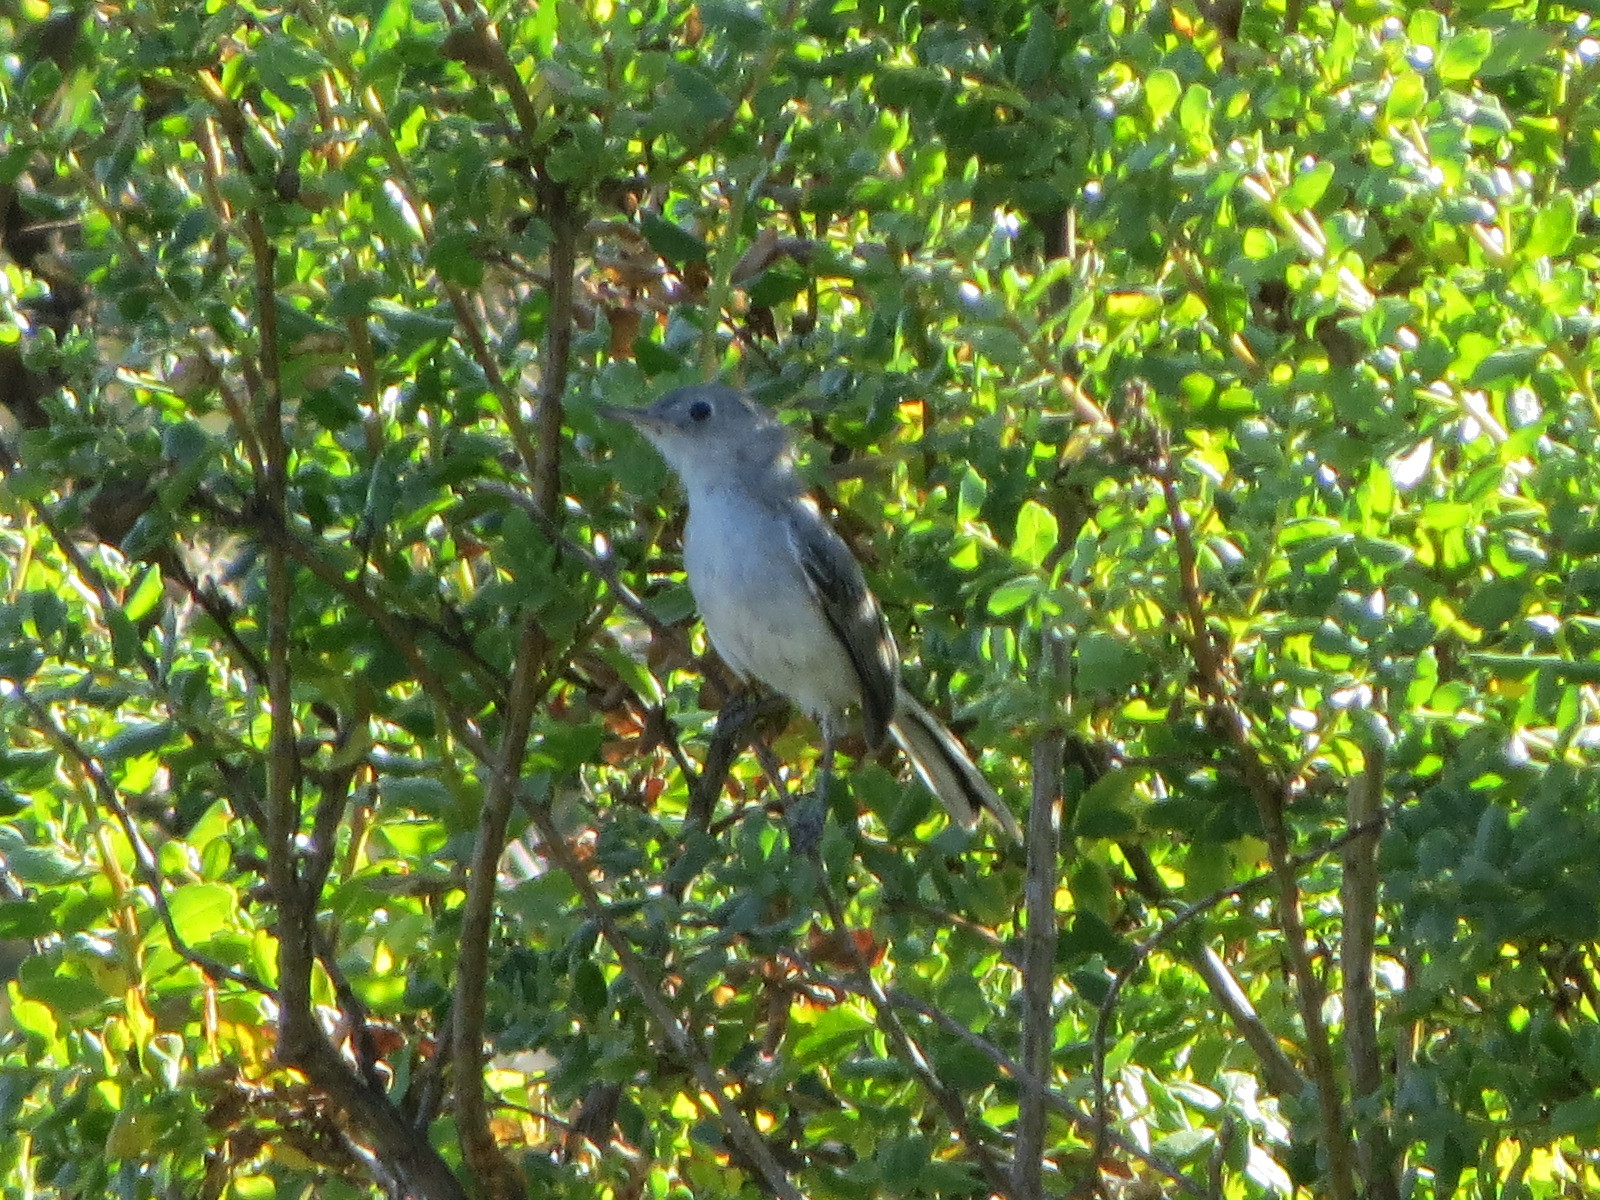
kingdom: Animalia
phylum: Chordata
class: Aves
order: Passeriformes
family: Polioptilidae
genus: Polioptila
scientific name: Polioptila caerulea
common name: Blue-gray gnatcatcher
